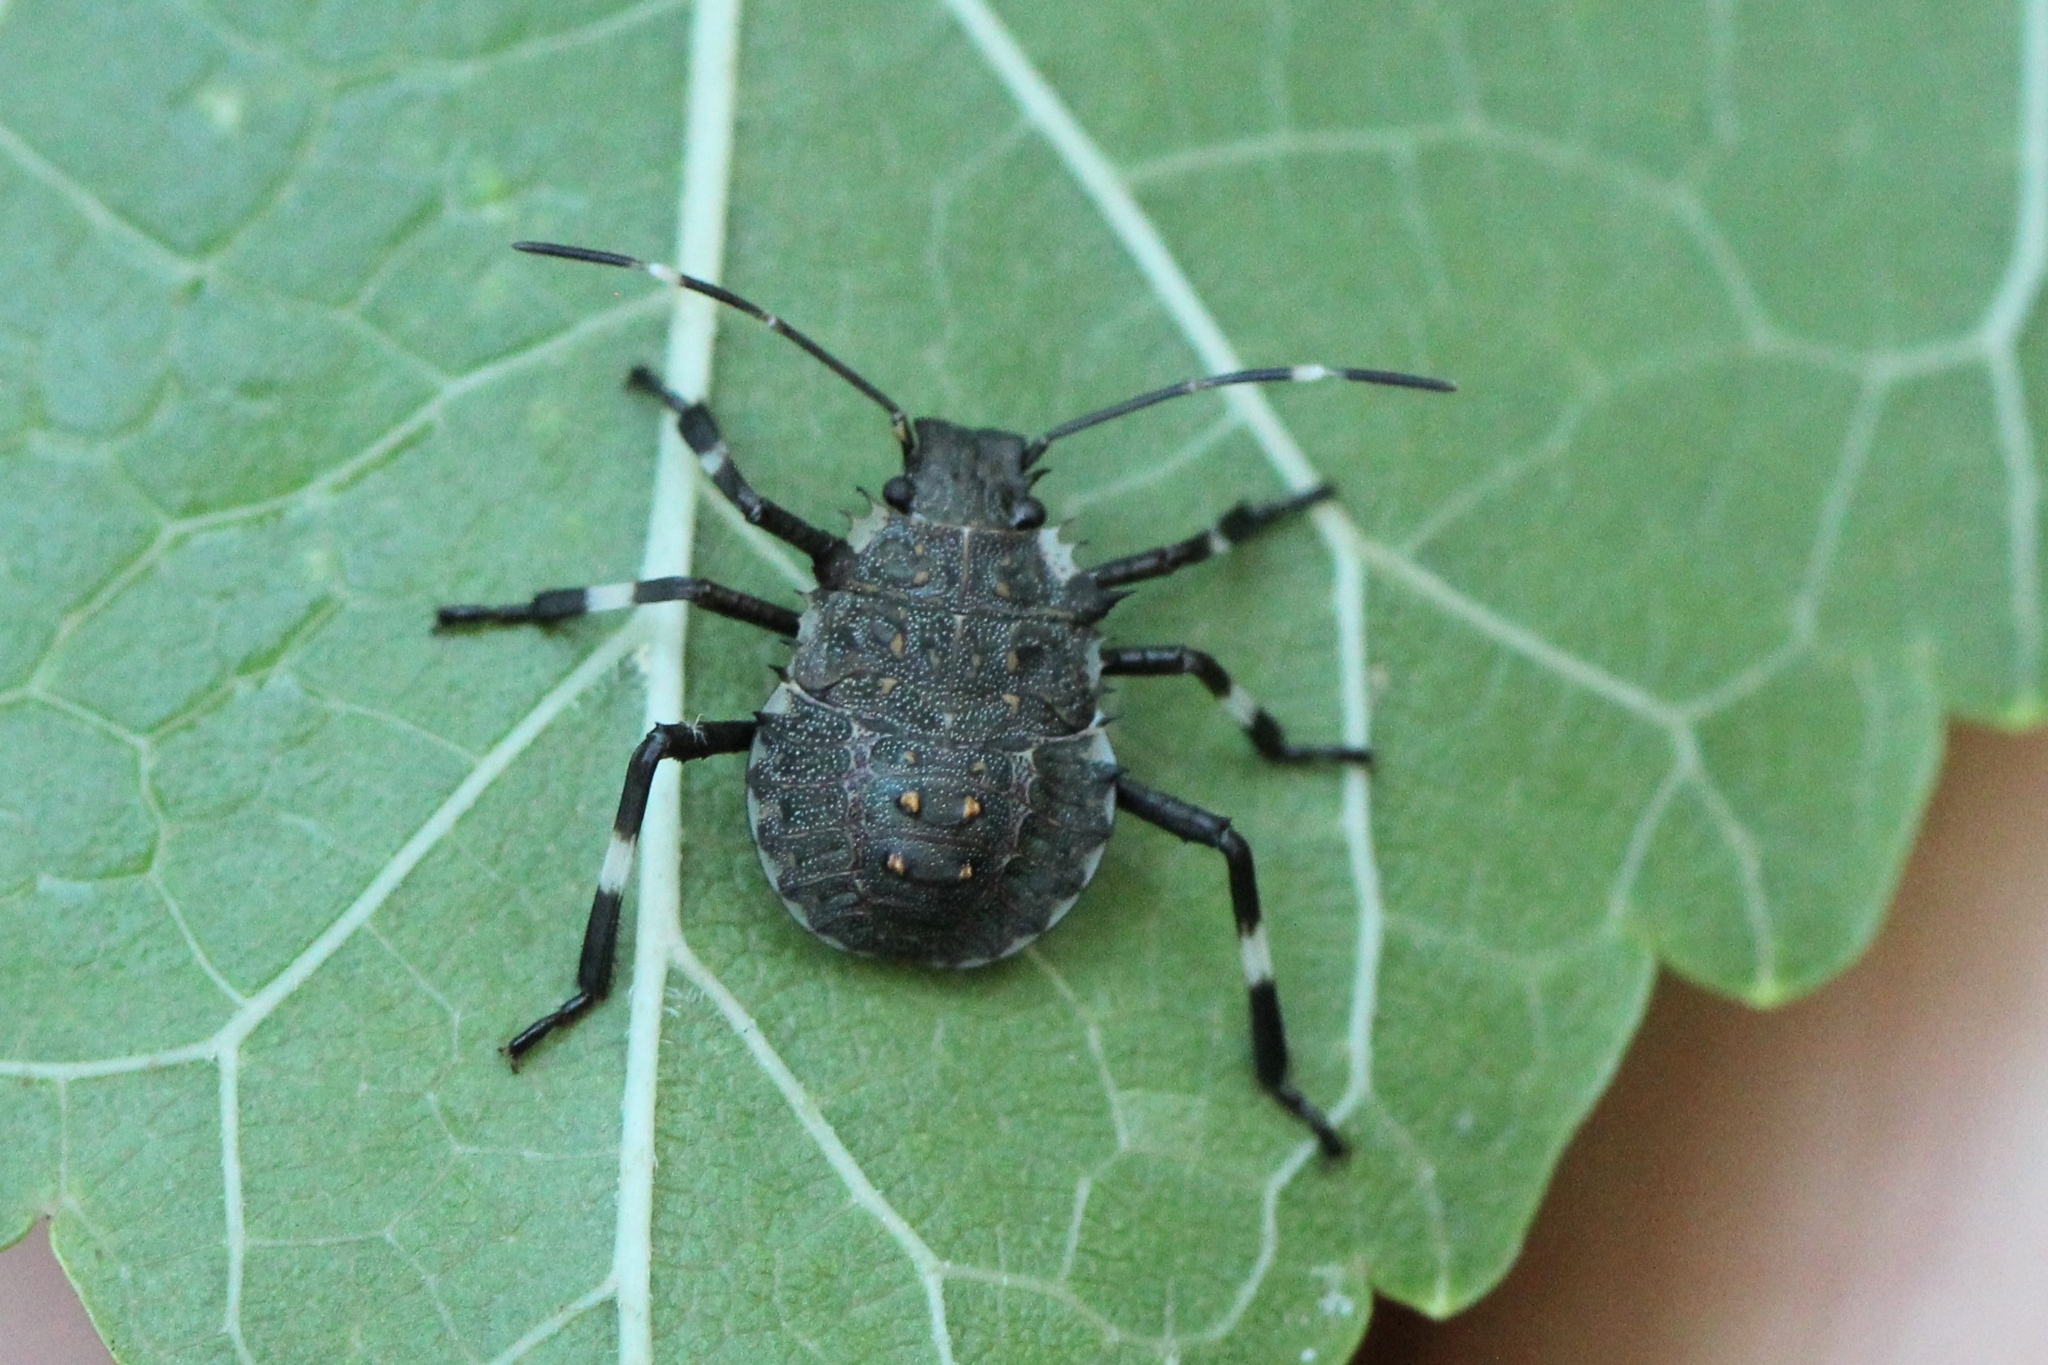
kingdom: Animalia
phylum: Arthropoda
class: Insecta
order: Hemiptera
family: Pentatomidae
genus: Halyomorpha
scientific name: Halyomorpha halys
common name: Brown marmorated stink bug
